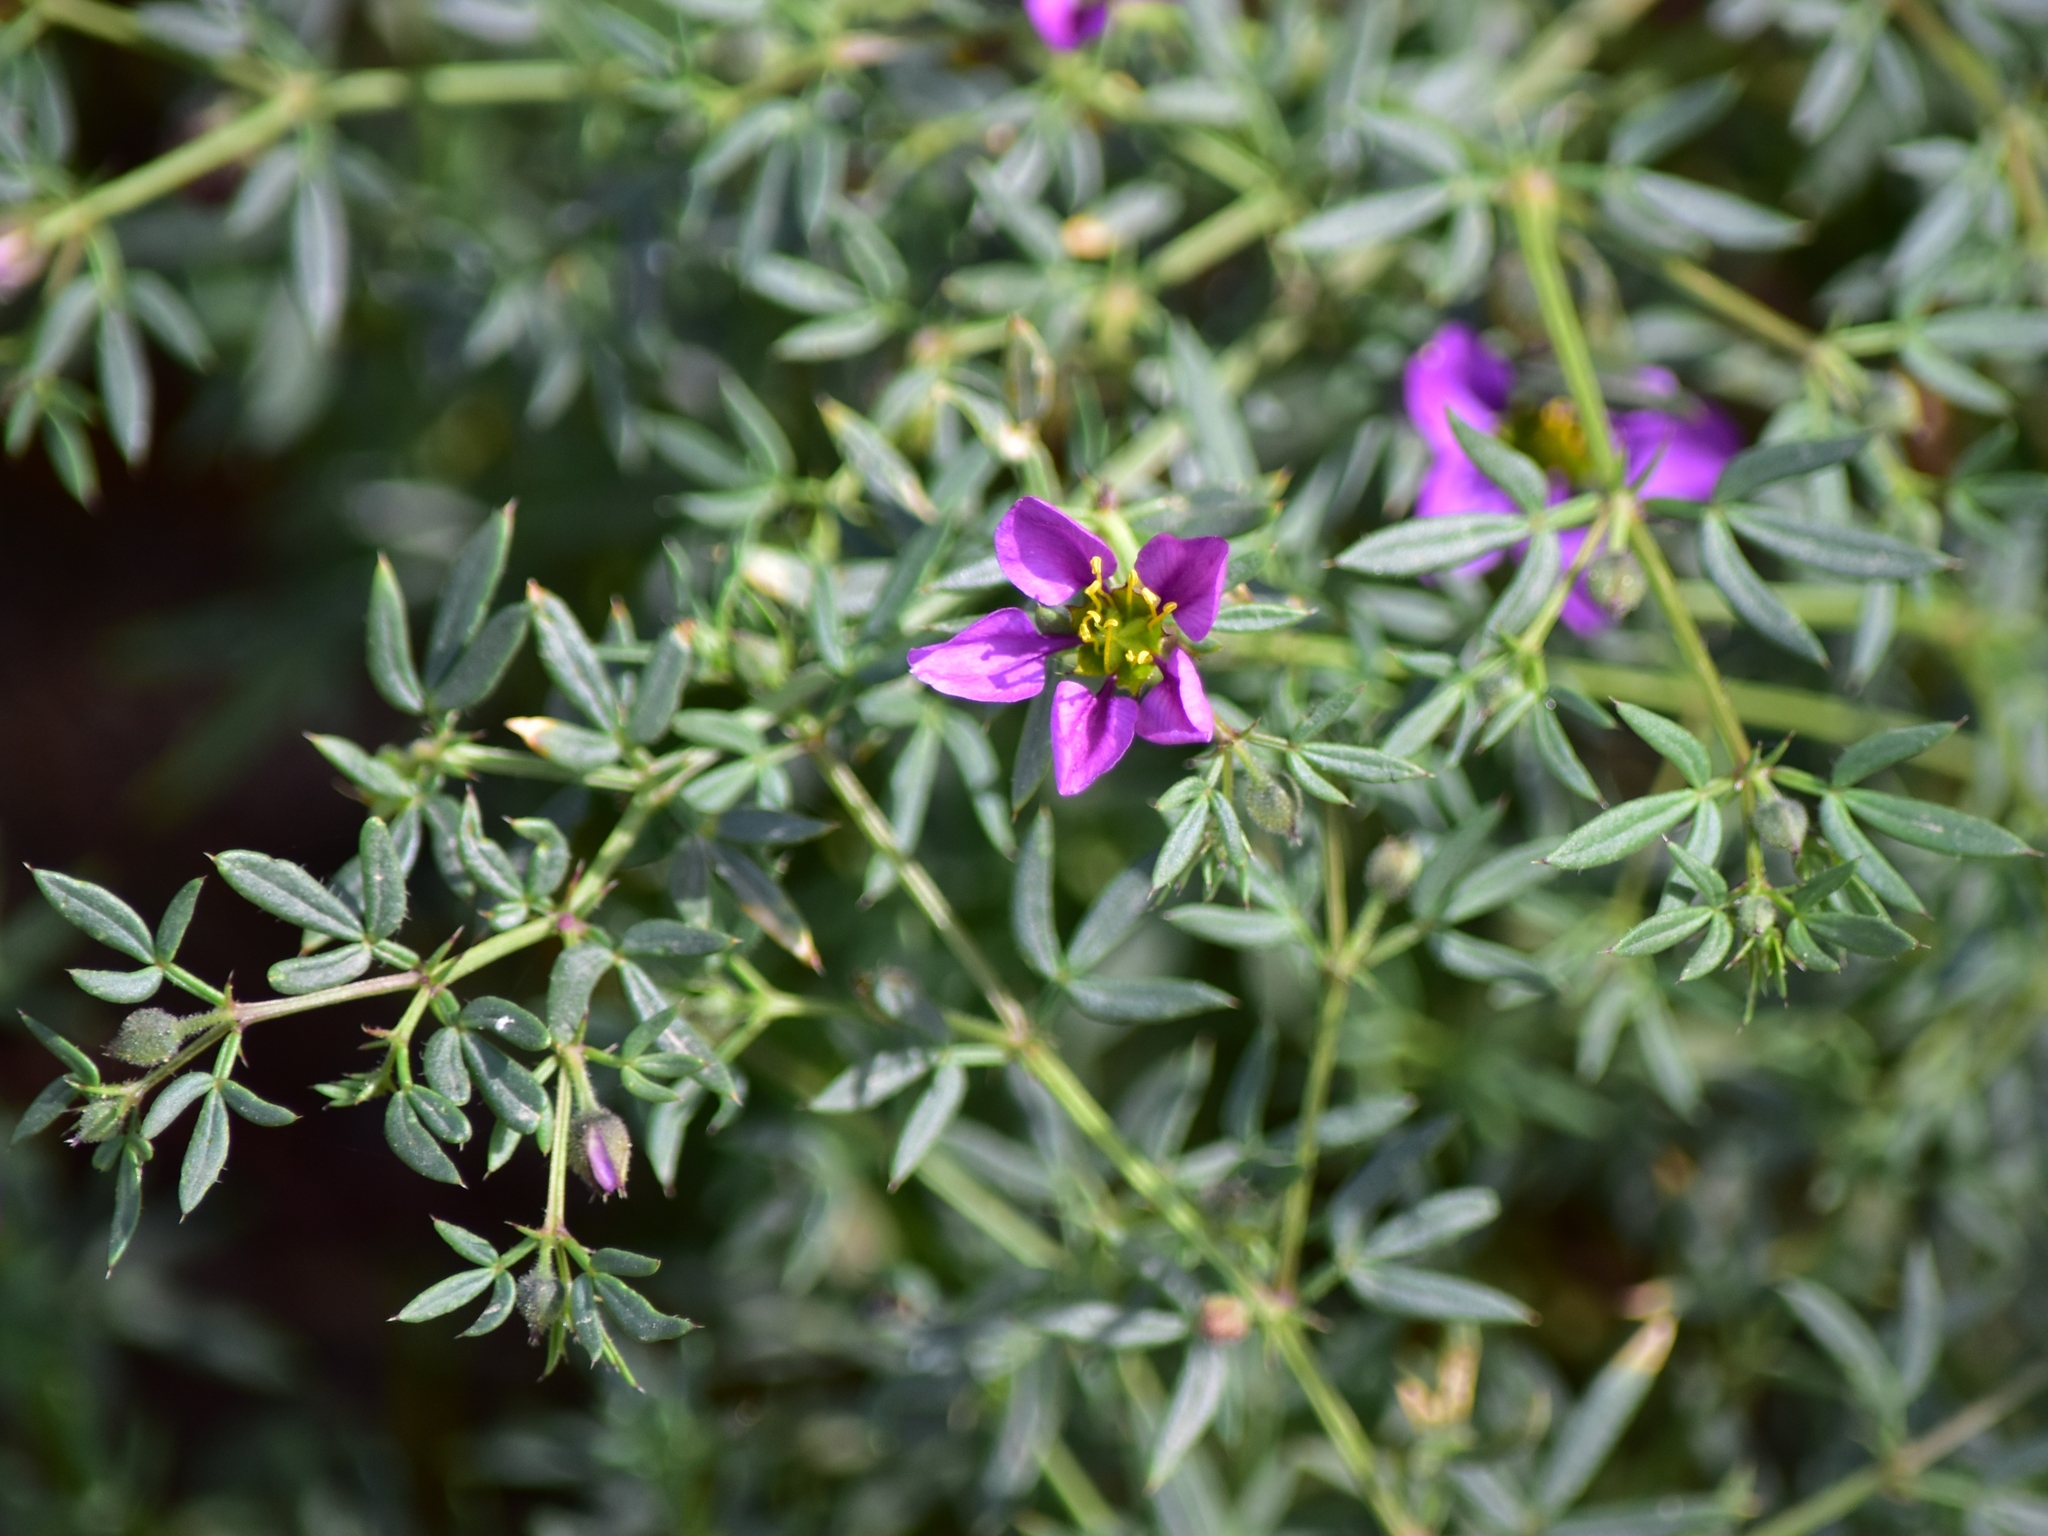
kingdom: Plantae
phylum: Tracheophyta
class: Magnoliopsida
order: Zygophyllales
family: Zygophyllaceae
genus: Fagonia
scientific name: Fagonia cretica
